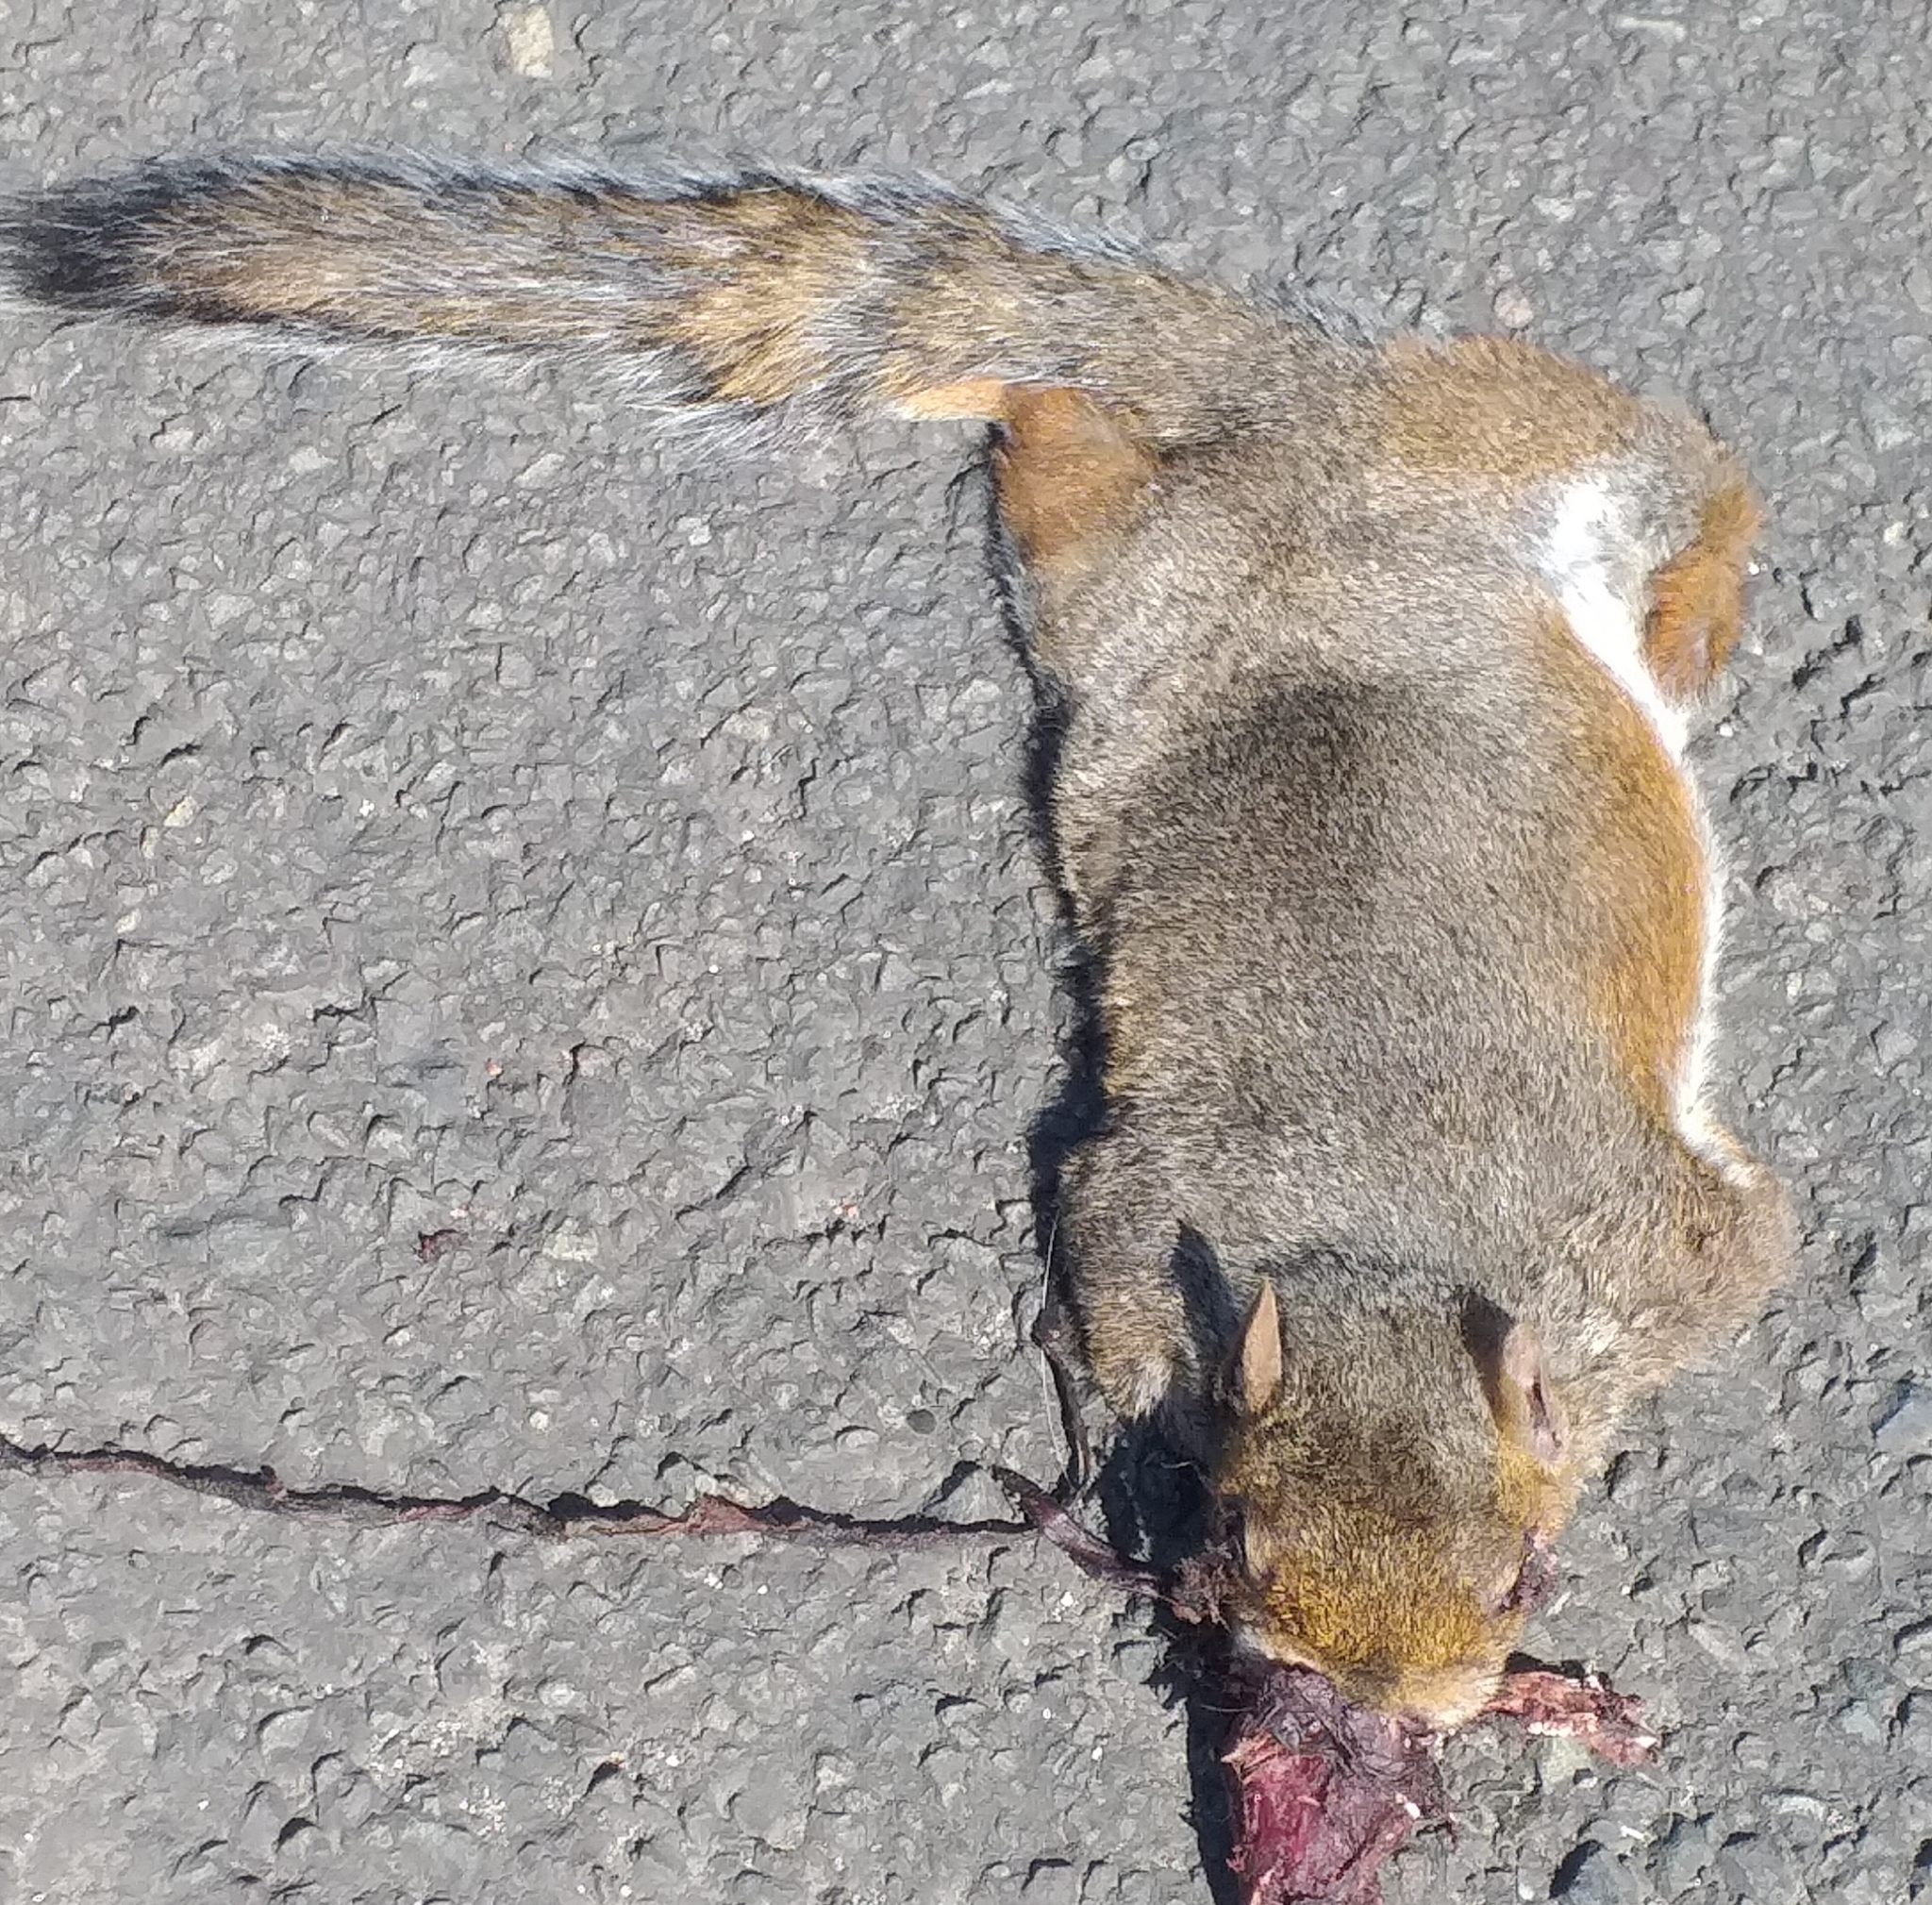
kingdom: Animalia
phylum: Chordata
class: Mammalia
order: Rodentia
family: Sciuridae
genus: Sciurus
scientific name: Sciurus carolinensis
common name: Eastern gray squirrel
